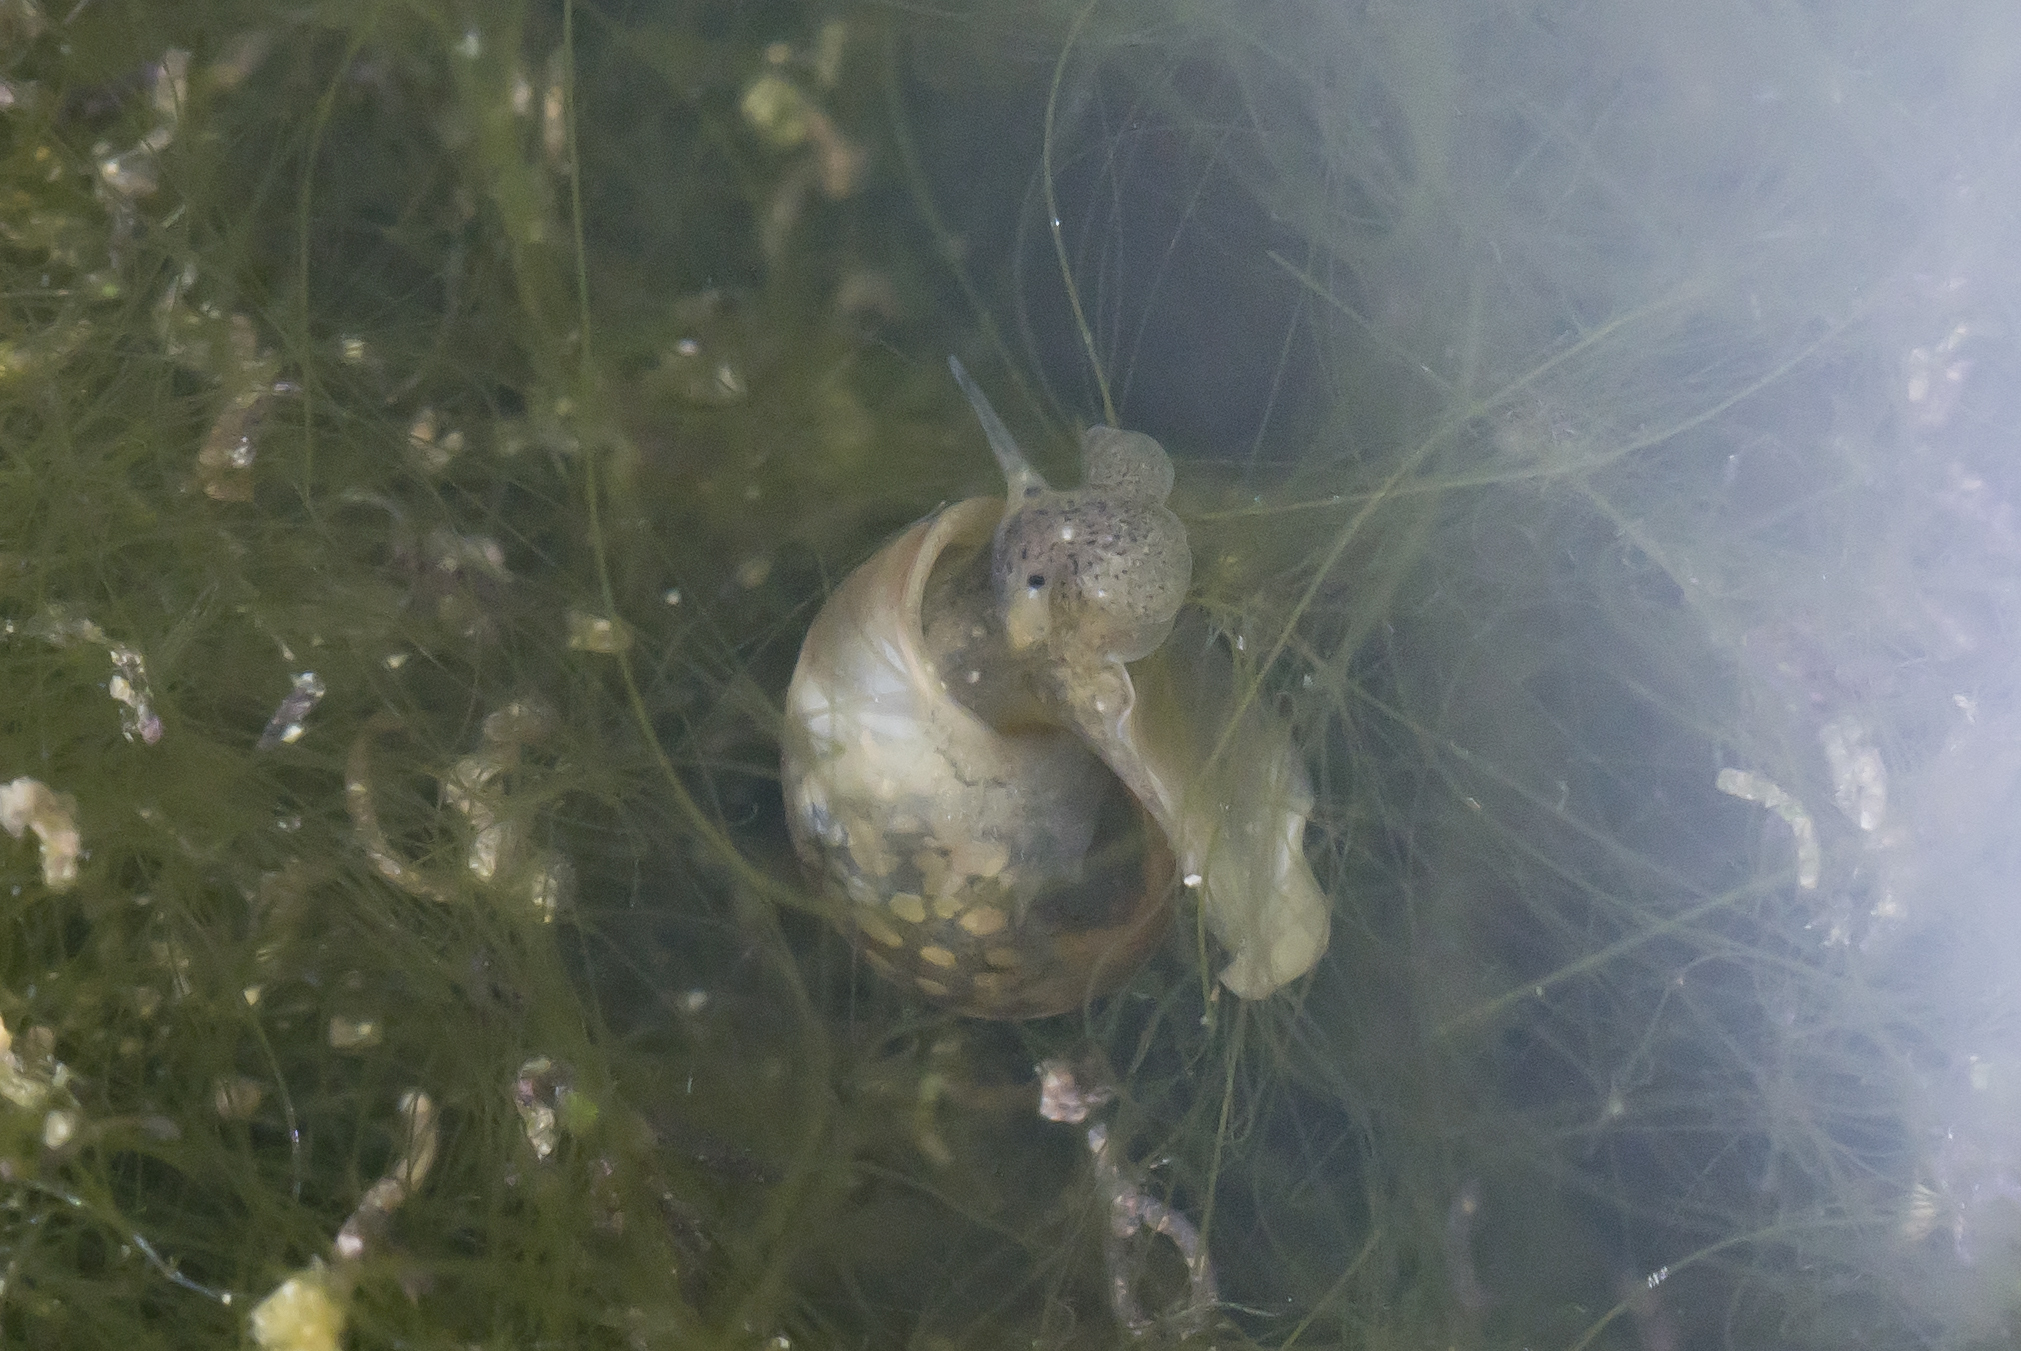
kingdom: Animalia
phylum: Mollusca
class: Gastropoda
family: Physidae
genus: Physella
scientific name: Physella acuta
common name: European physa
